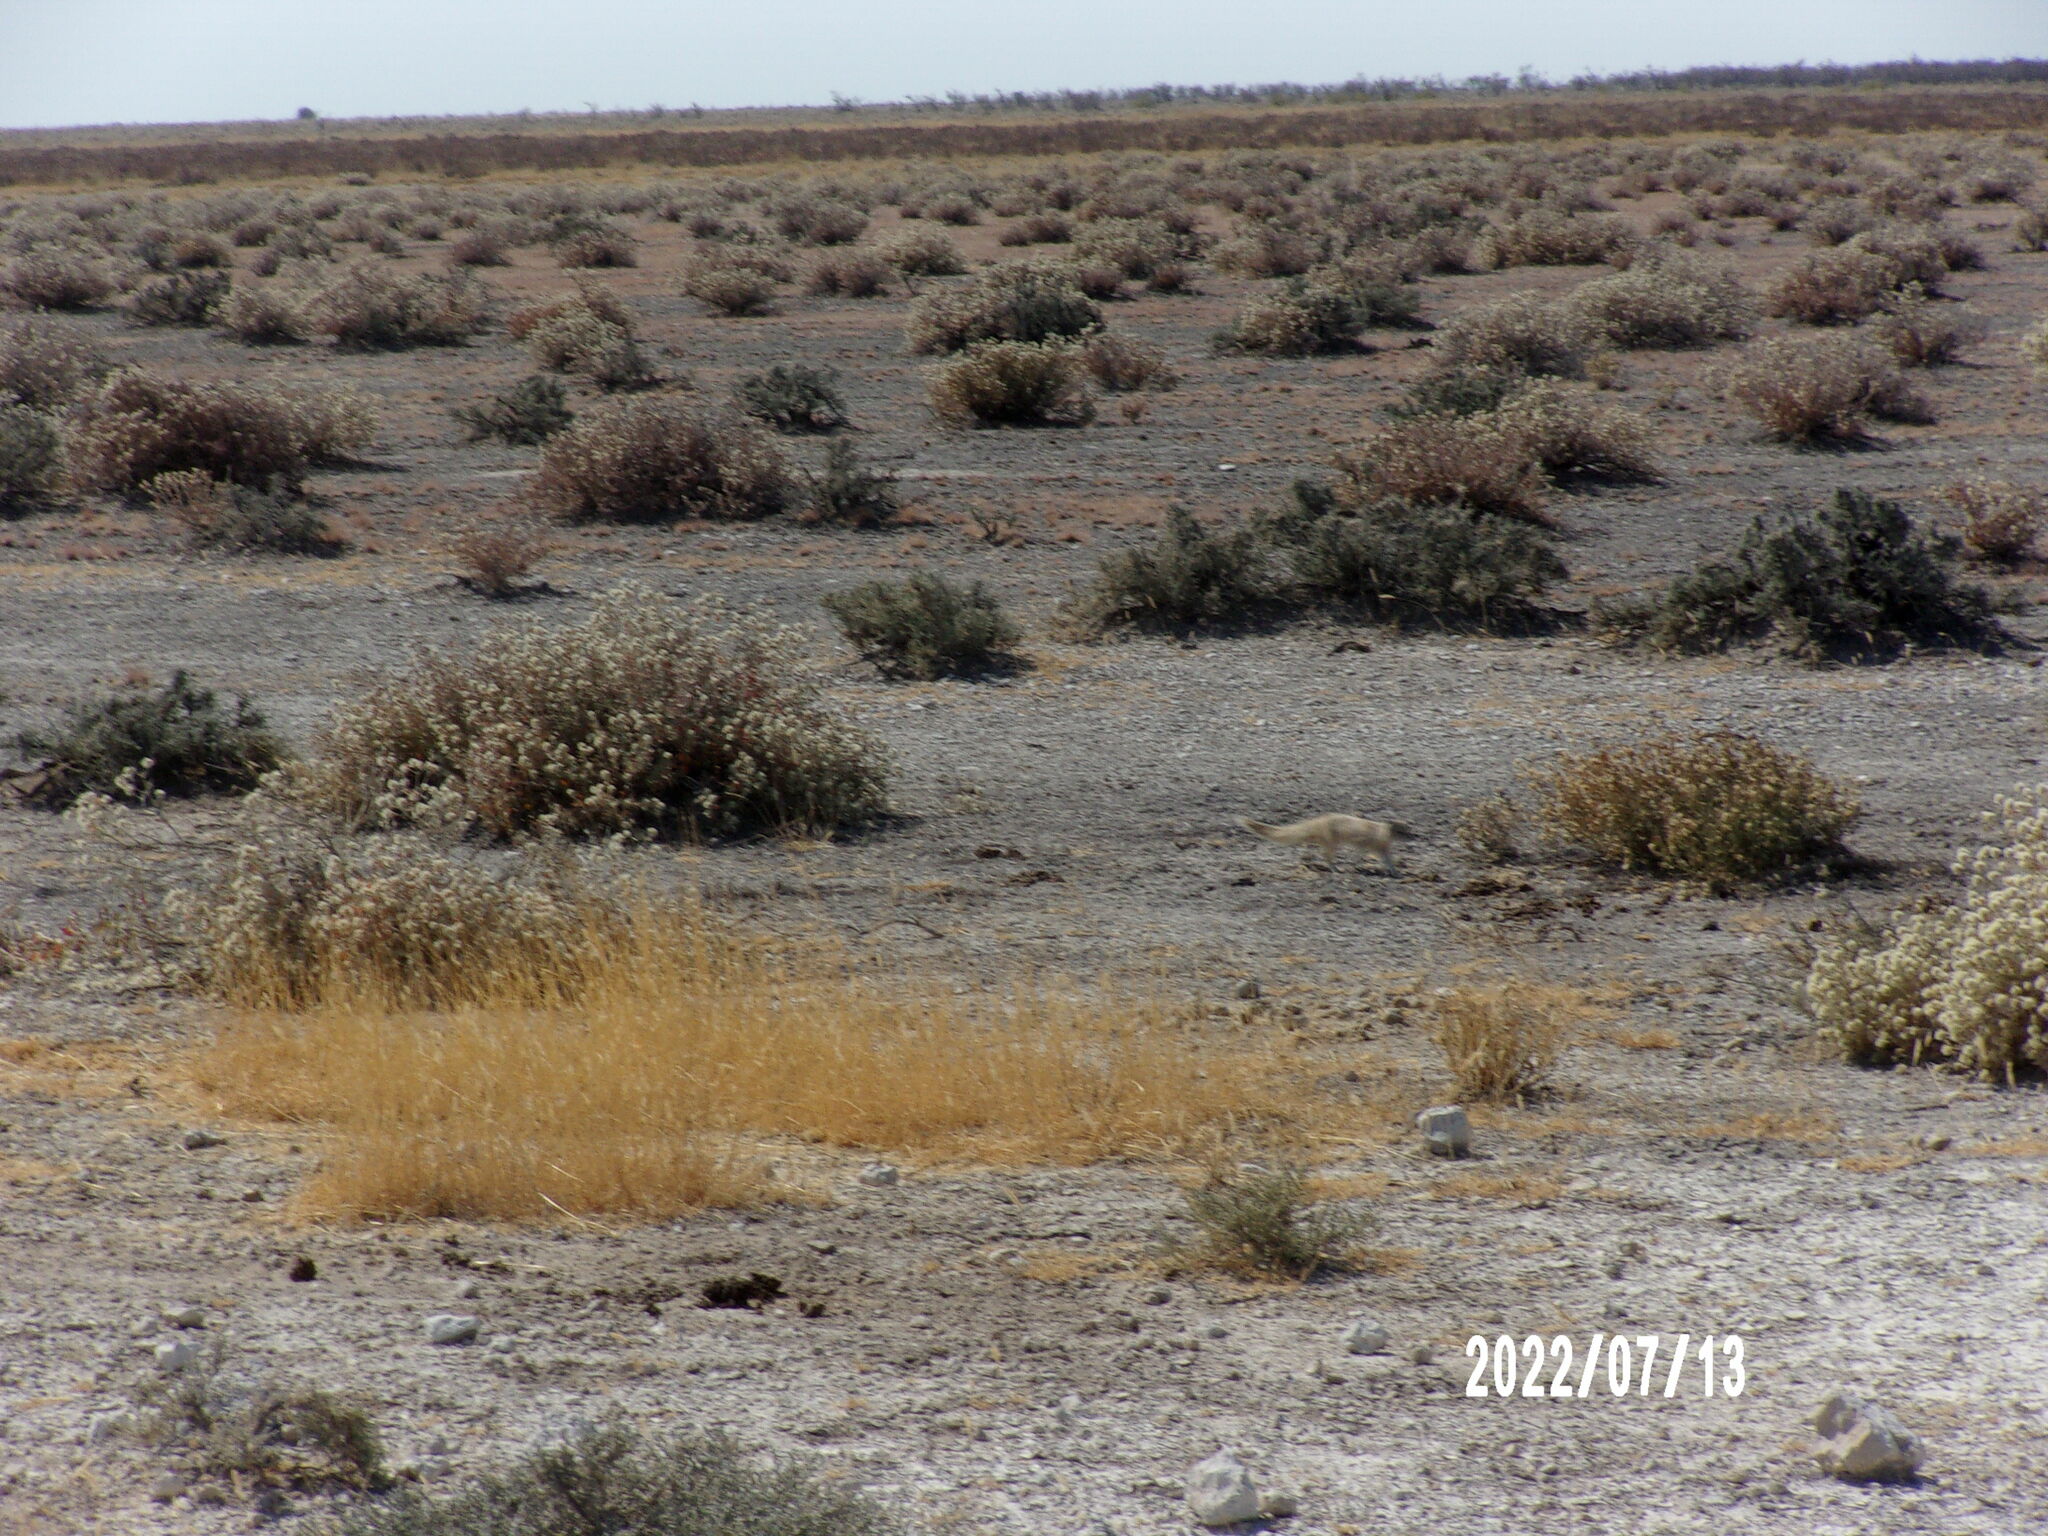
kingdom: Animalia
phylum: Chordata
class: Mammalia
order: Carnivora
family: Herpestidae
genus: Cynictis
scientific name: Cynictis penicillata
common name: Yellow mongoose
